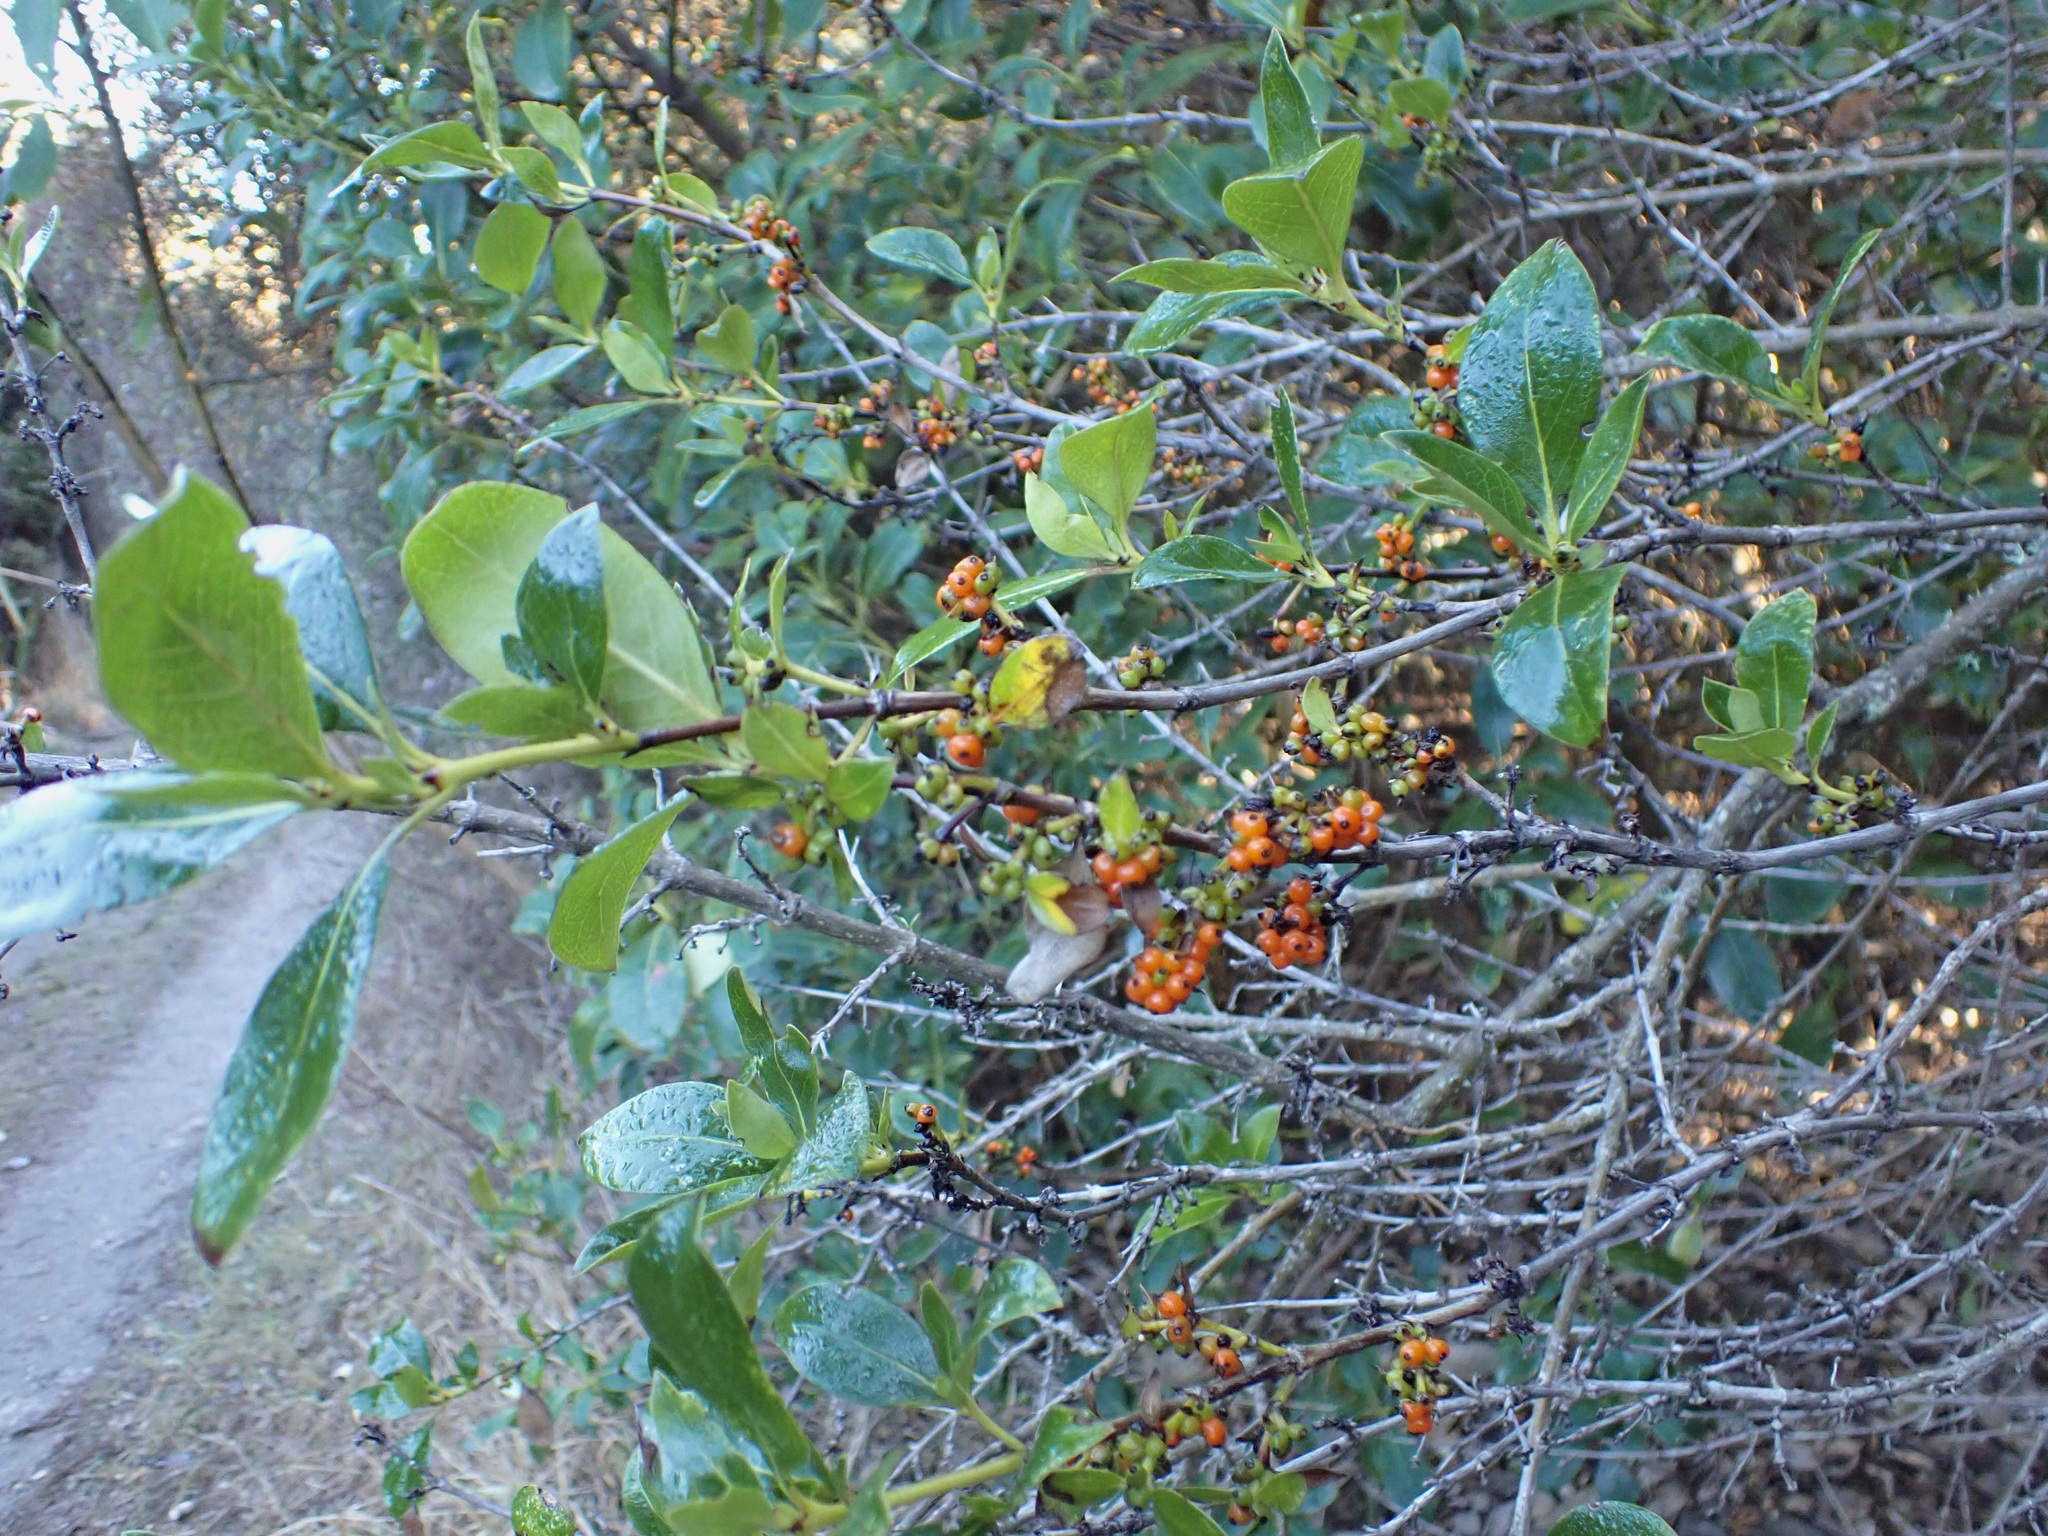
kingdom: Plantae
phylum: Tracheophyta
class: Magnoliopsida
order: Gentianales
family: Rubiaceae
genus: Coprosma
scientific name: Coprosma robusta
